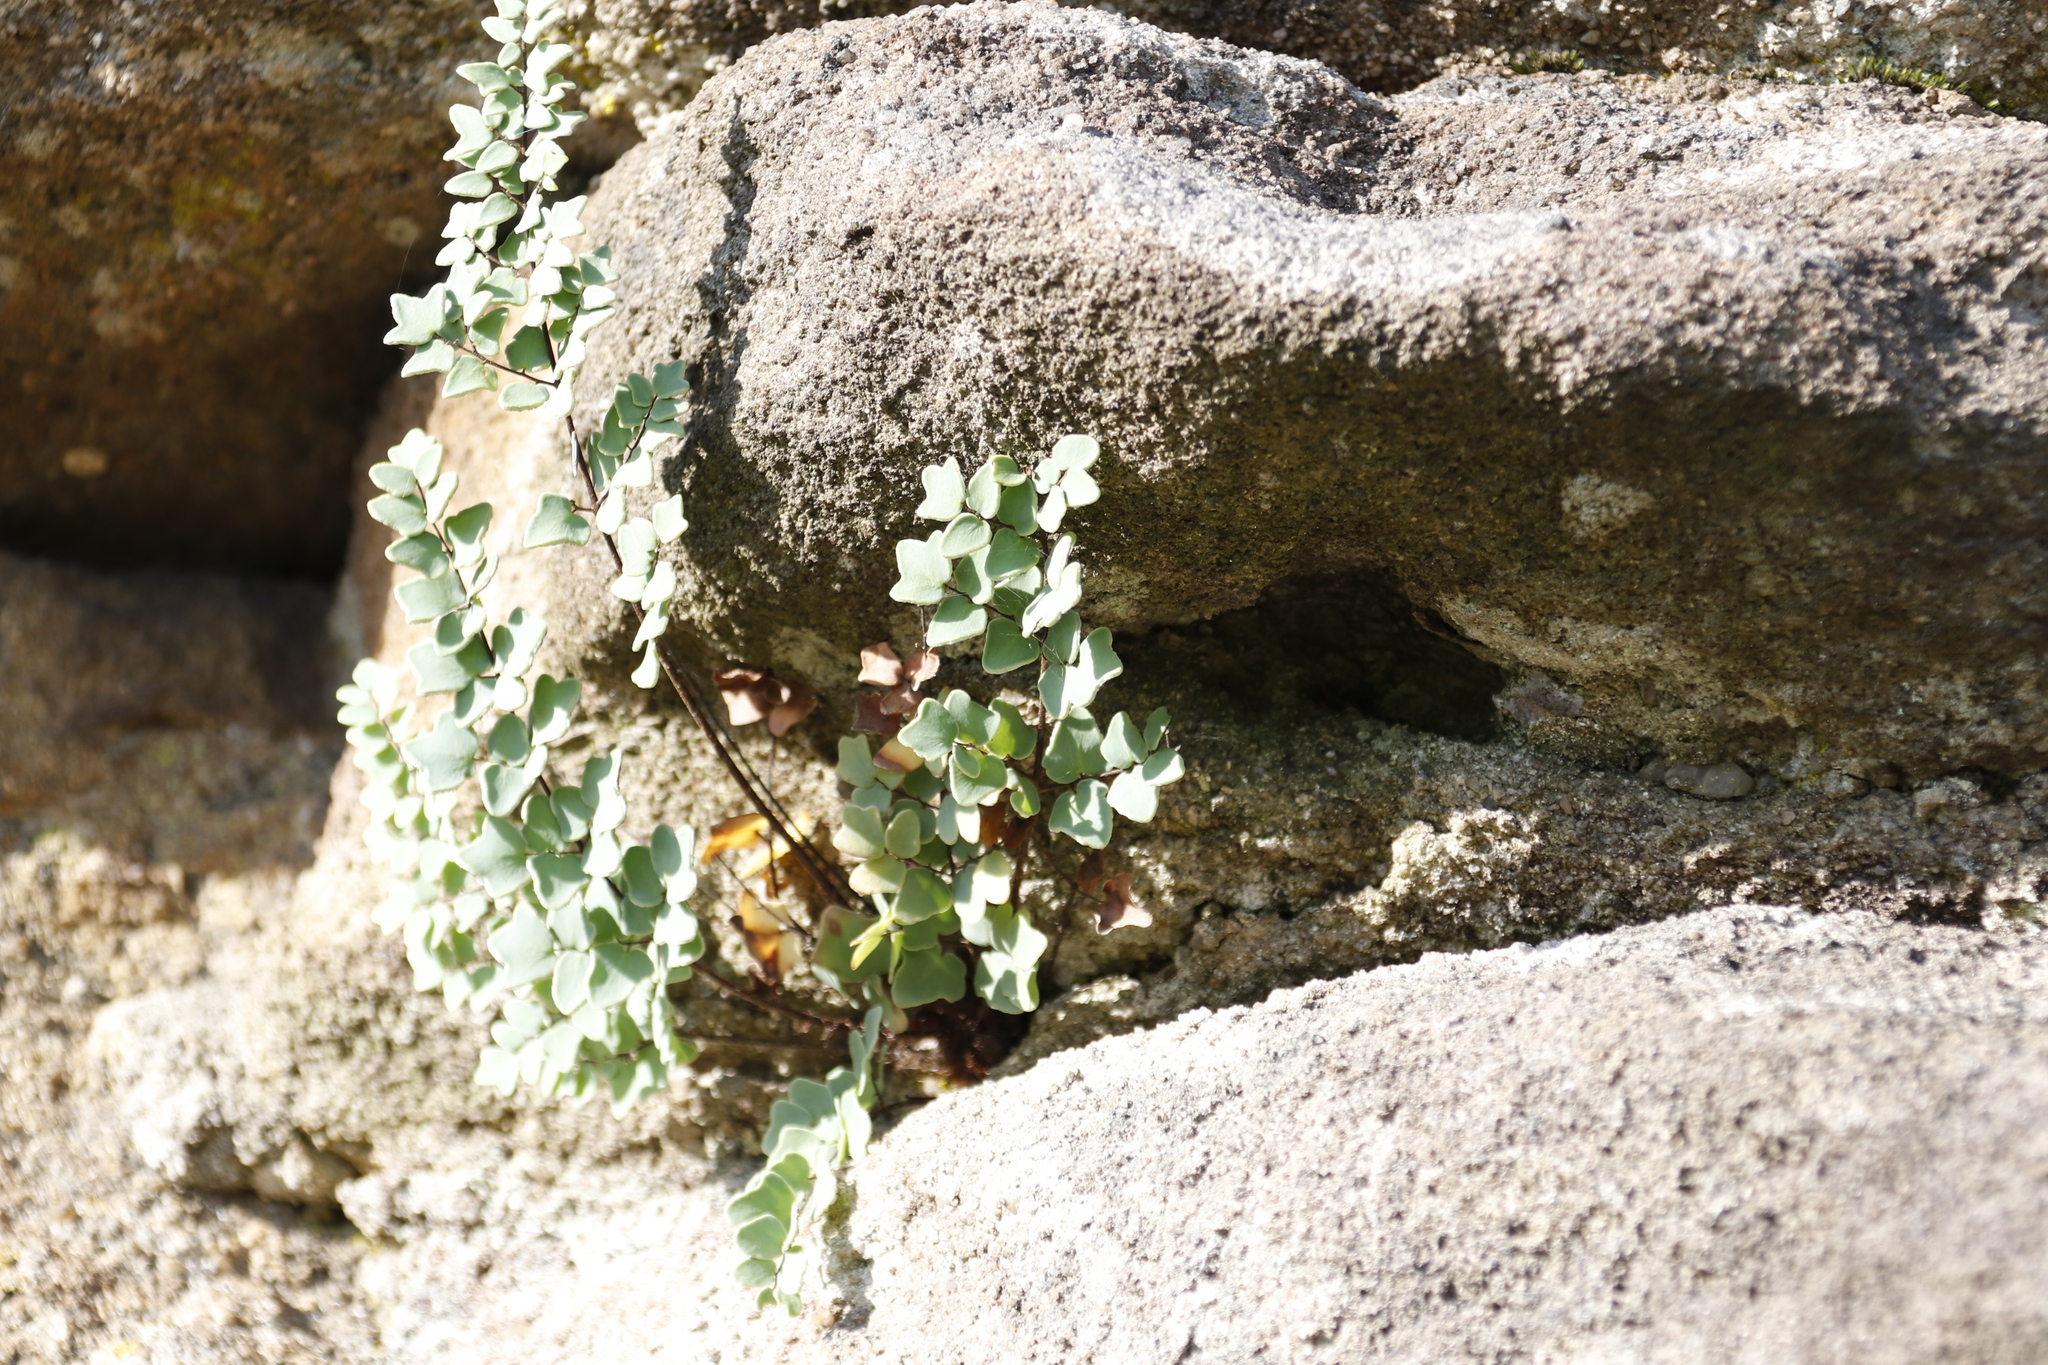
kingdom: Plantae
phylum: Tracheophyta
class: Polypodiopsida
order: Polypodiales
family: Pteridaceae
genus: Pellaea
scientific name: Pellaea calomelanos
